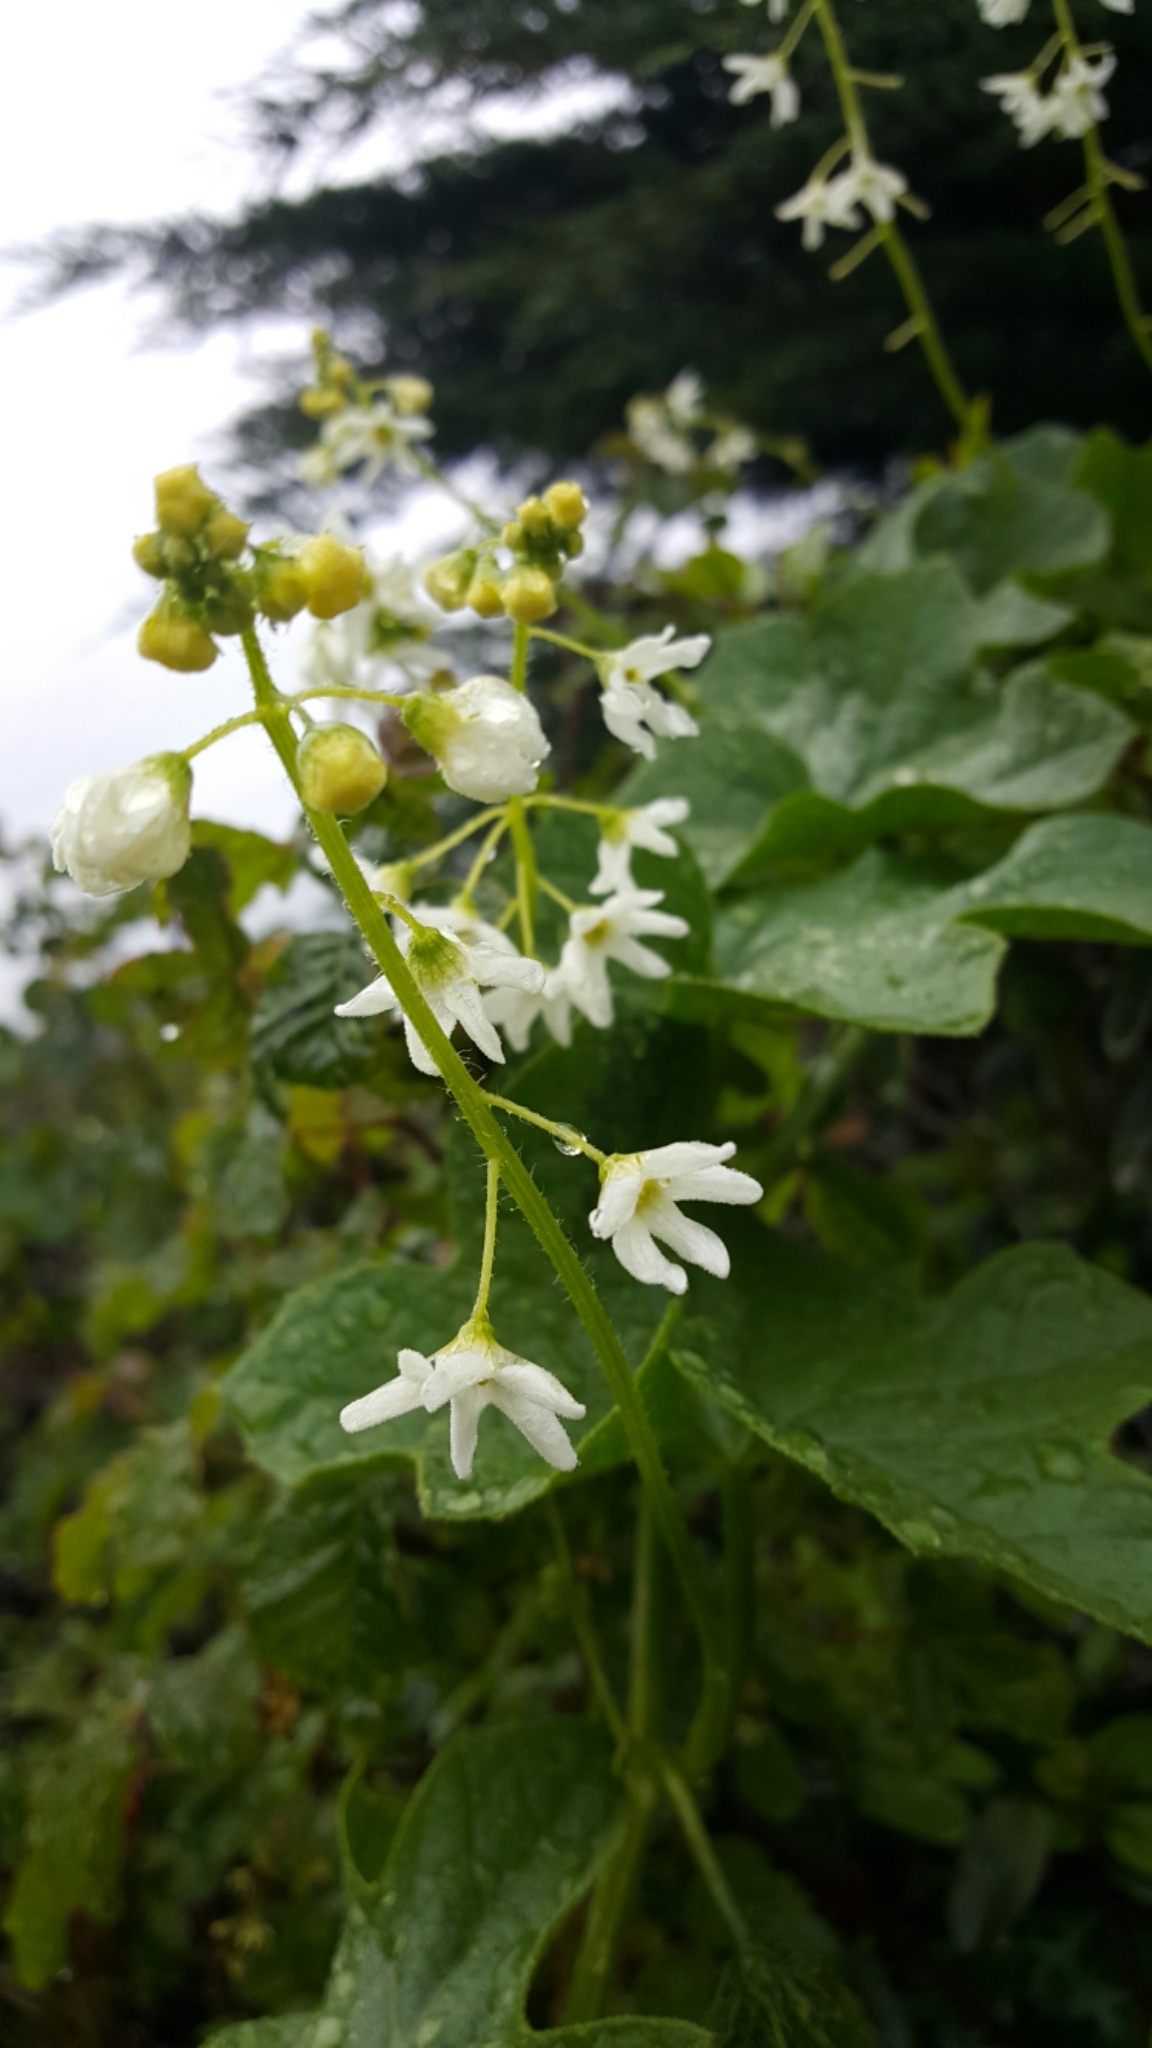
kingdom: Plantae
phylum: Tracheophyta
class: Magnoliopsida
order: Cucurbitales
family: Cucurbitaceae
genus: Marah
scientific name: Marah oregana
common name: Coastal manroot
